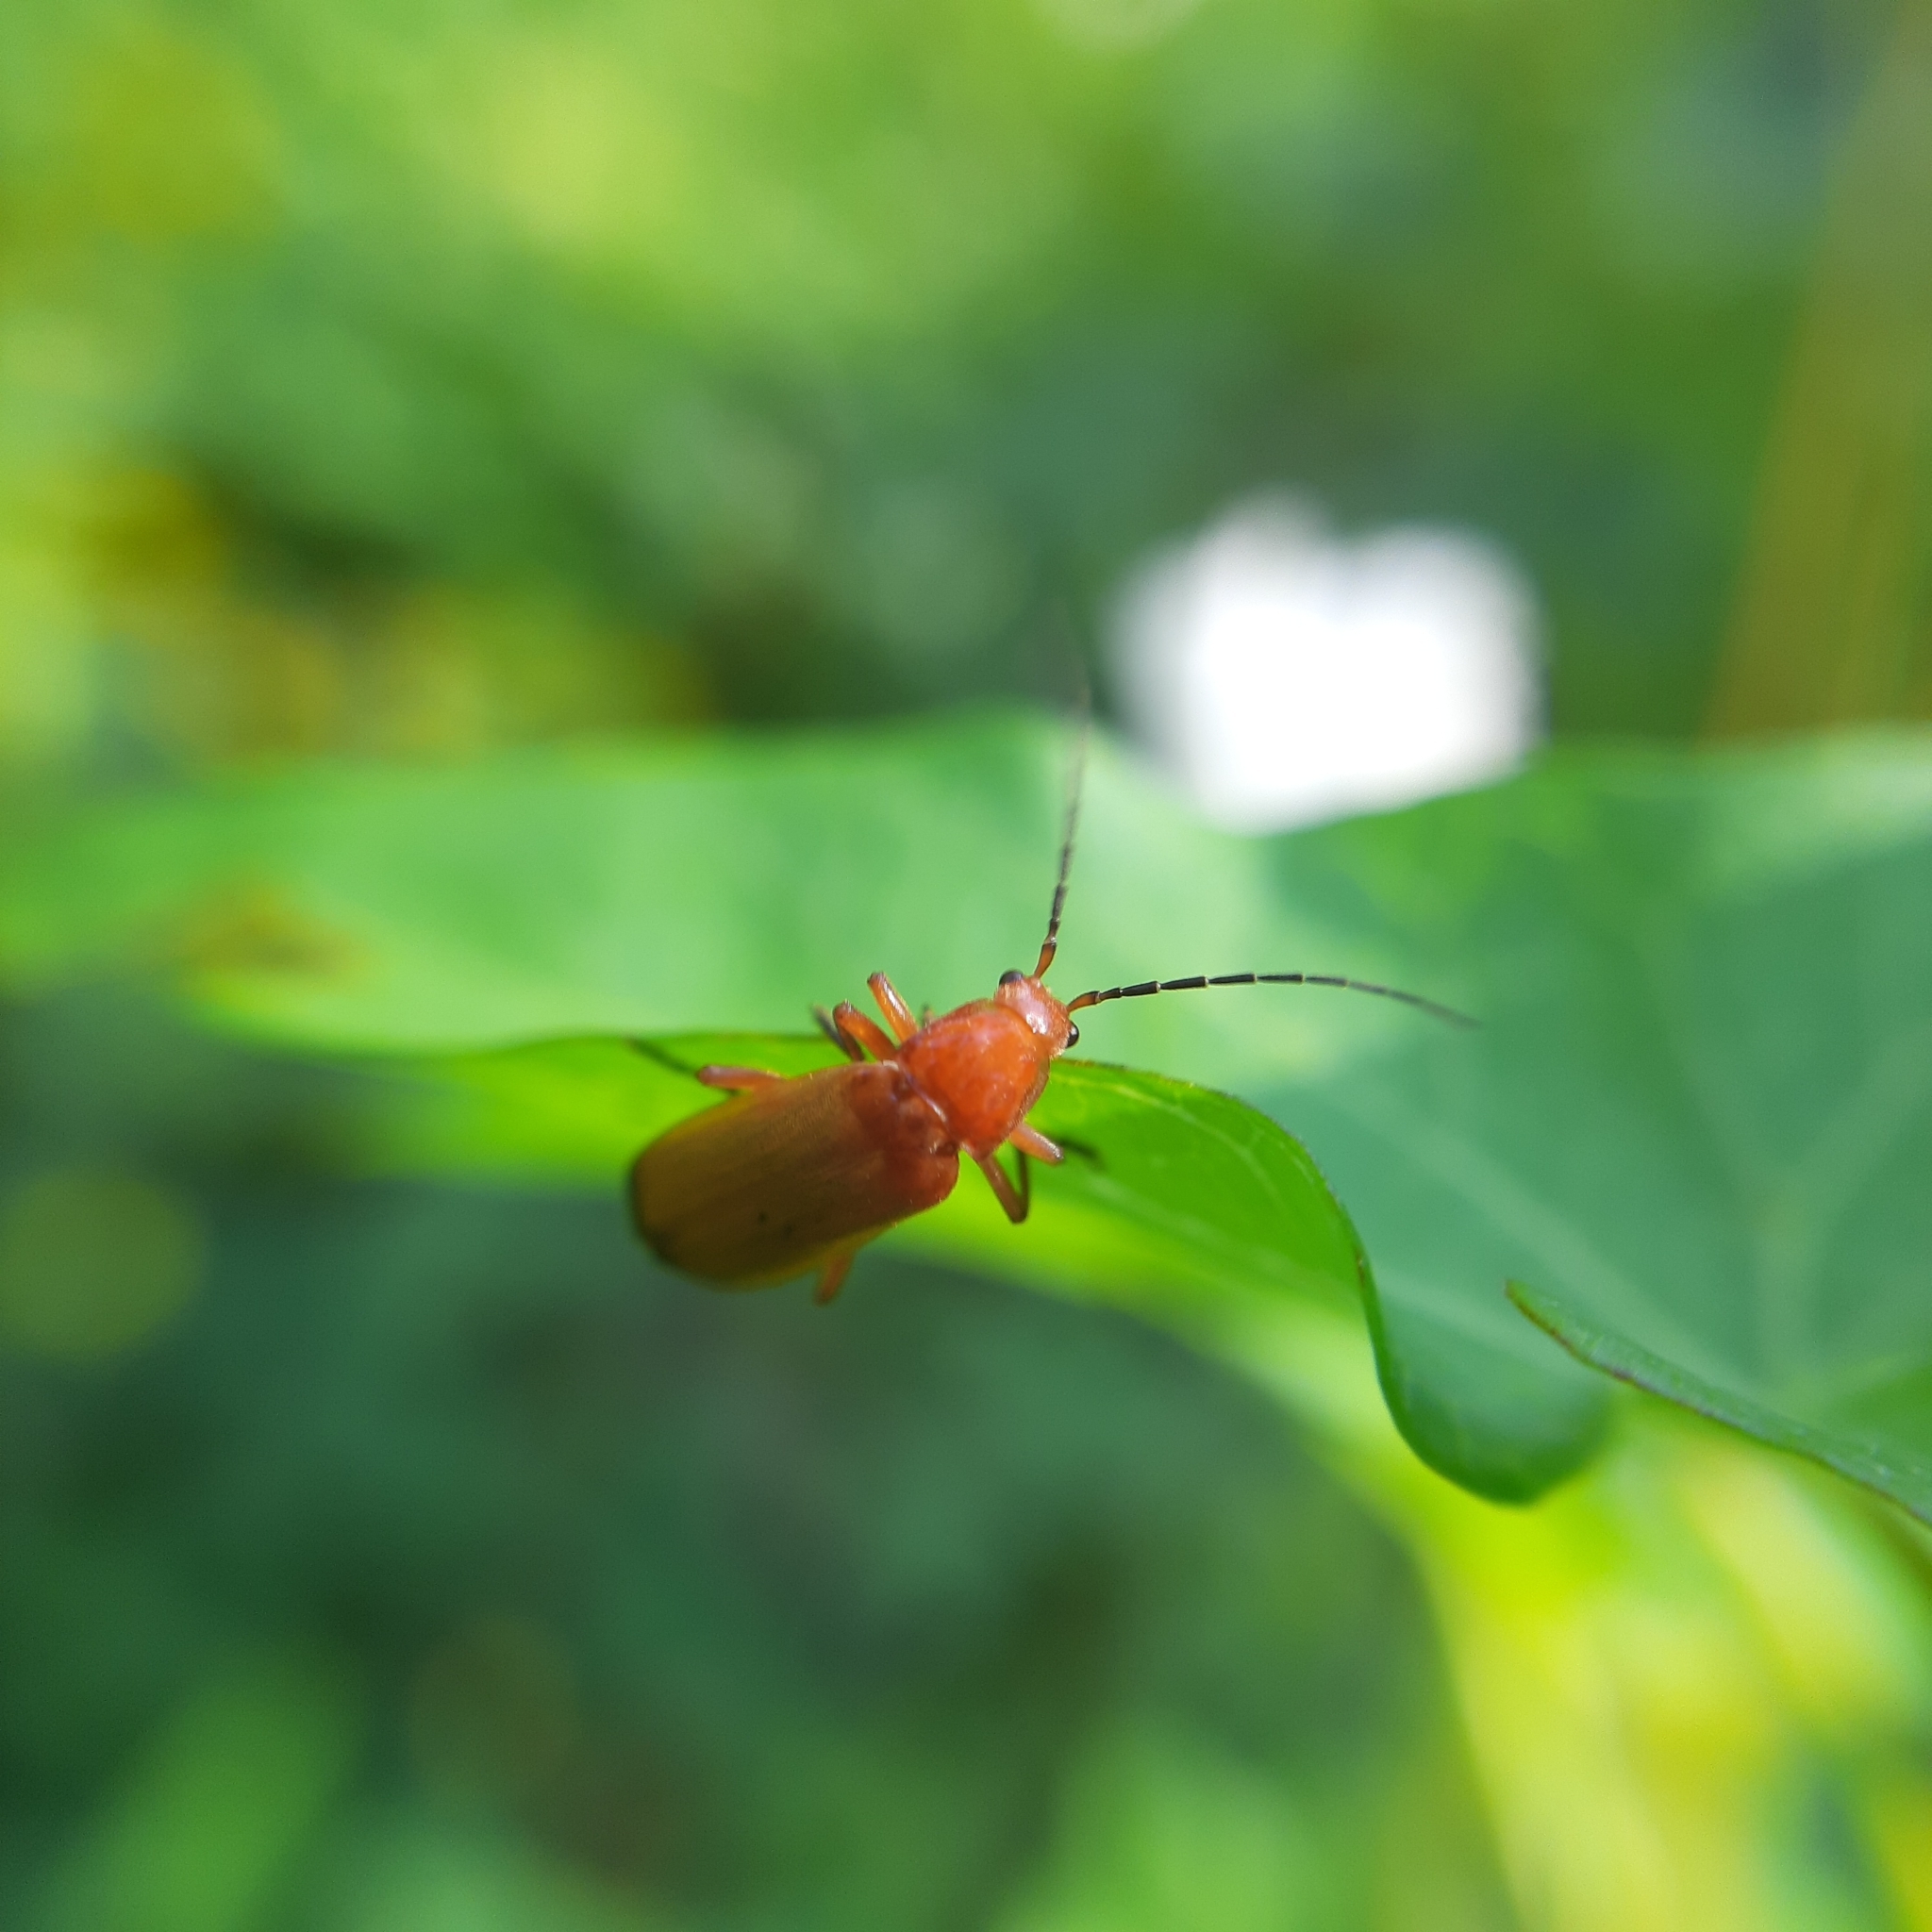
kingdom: Animalia
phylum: Arthropoda
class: Insecta
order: Coleoptera
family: Cantharidae
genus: Rhagonycha
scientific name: Rhagonycha fulva
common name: Common red soldier beetle
